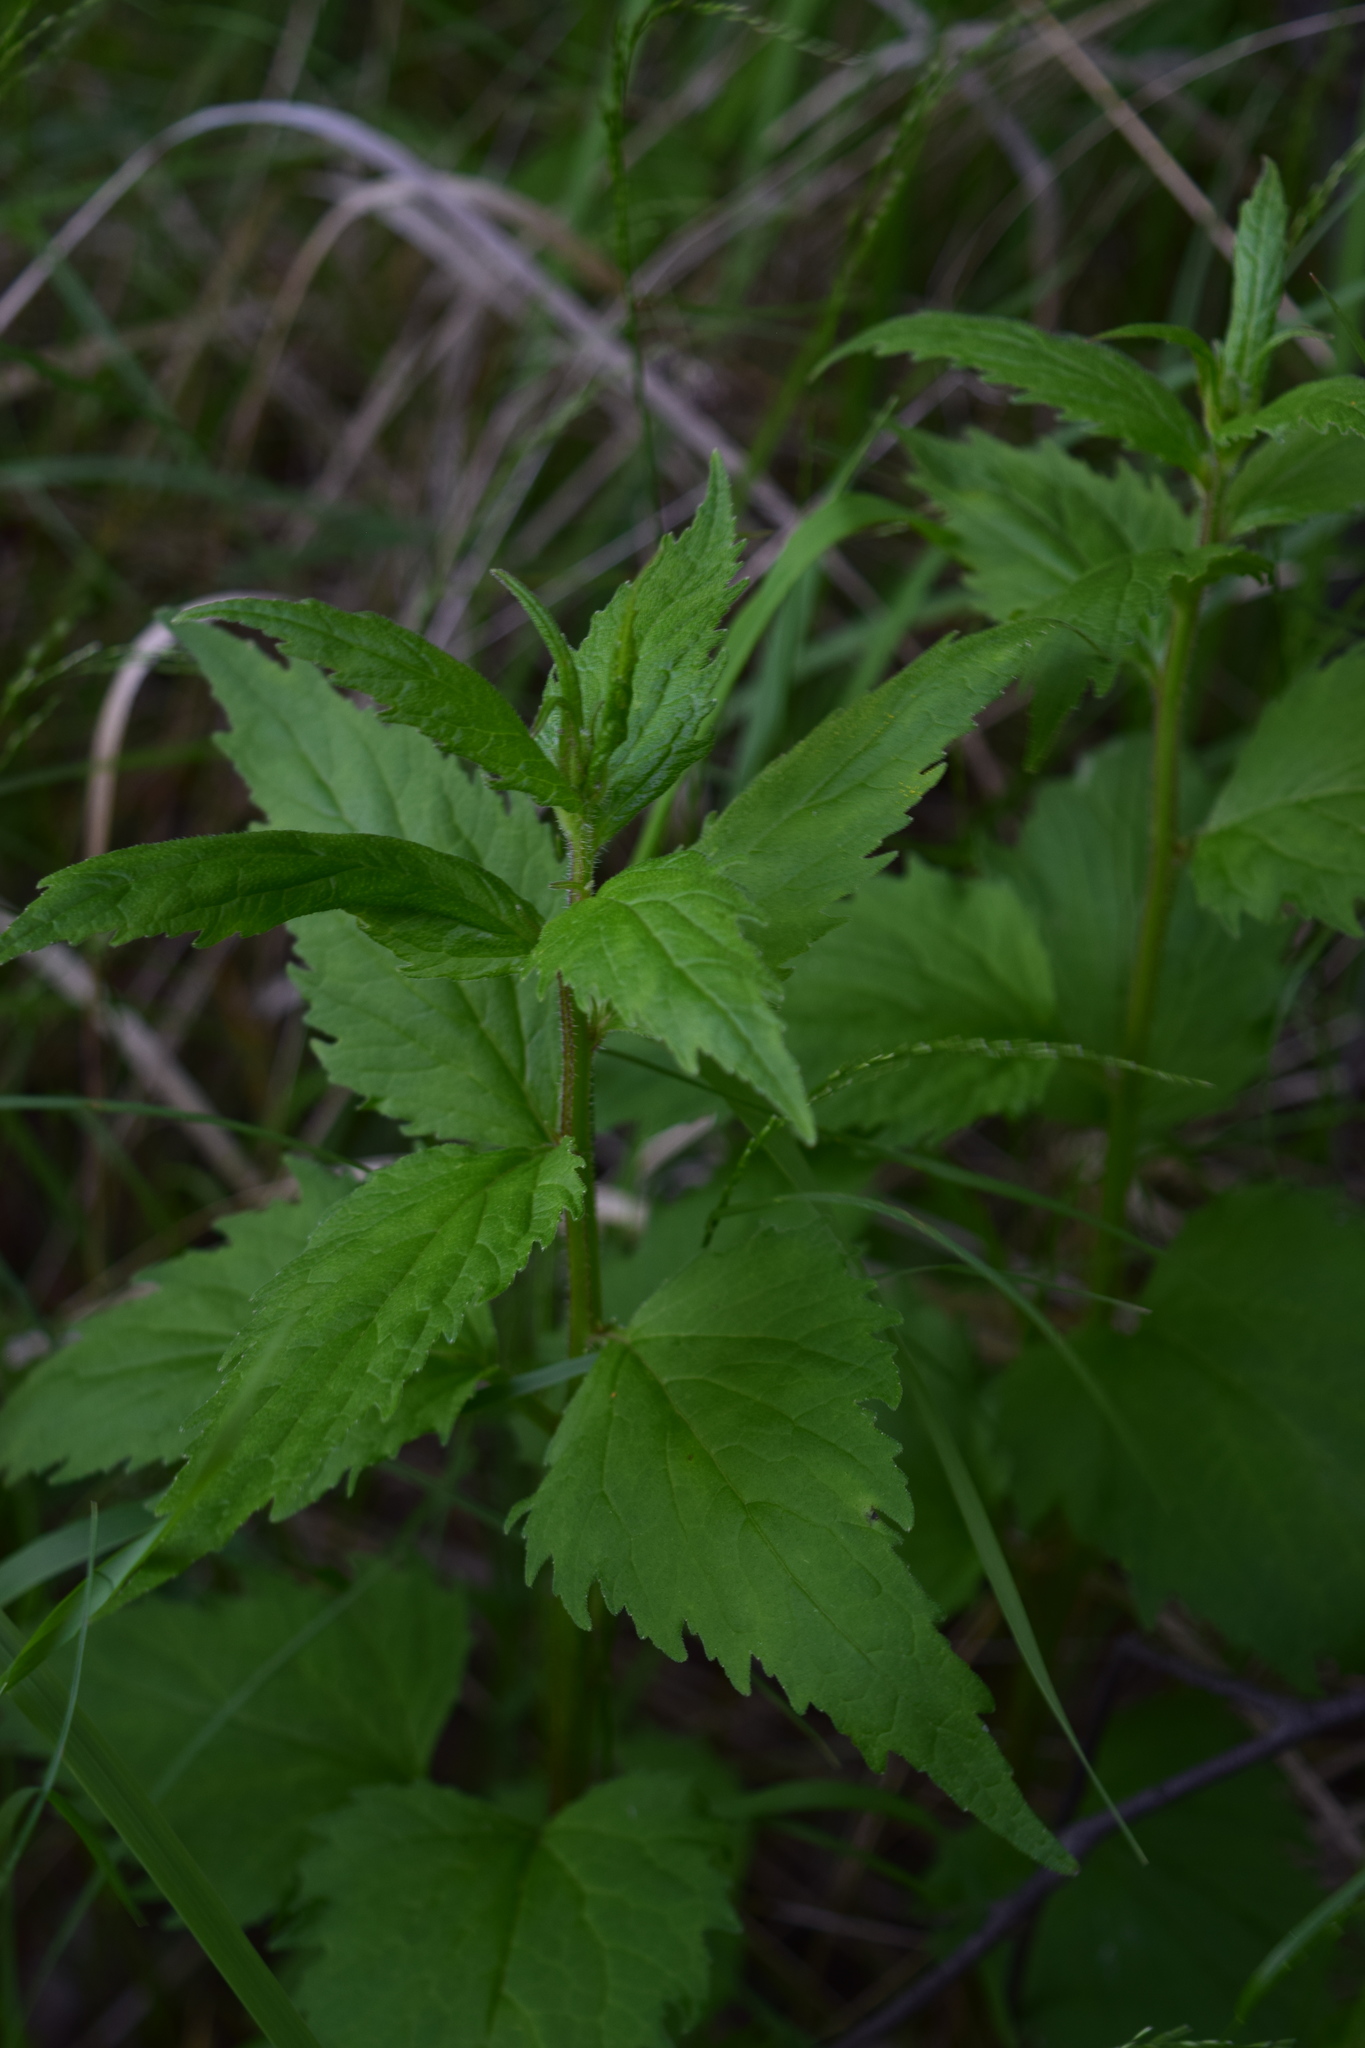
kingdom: Plantae
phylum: Tracheophyta
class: Magnoliopsida
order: Asterales
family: Campanulaceae
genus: Campanula
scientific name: Campanula trachelium
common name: Nettle-leaved bellflower
